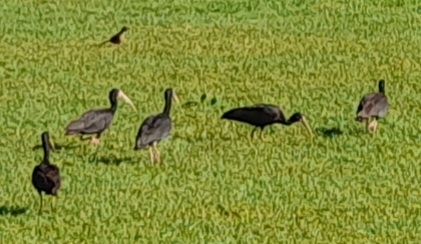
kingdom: Animalia
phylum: Chordata
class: Aves
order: Pelecaniformes
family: Threskiornithidae
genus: Phimosus
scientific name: Phimosus infuscatus
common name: Bare-faced ibis
